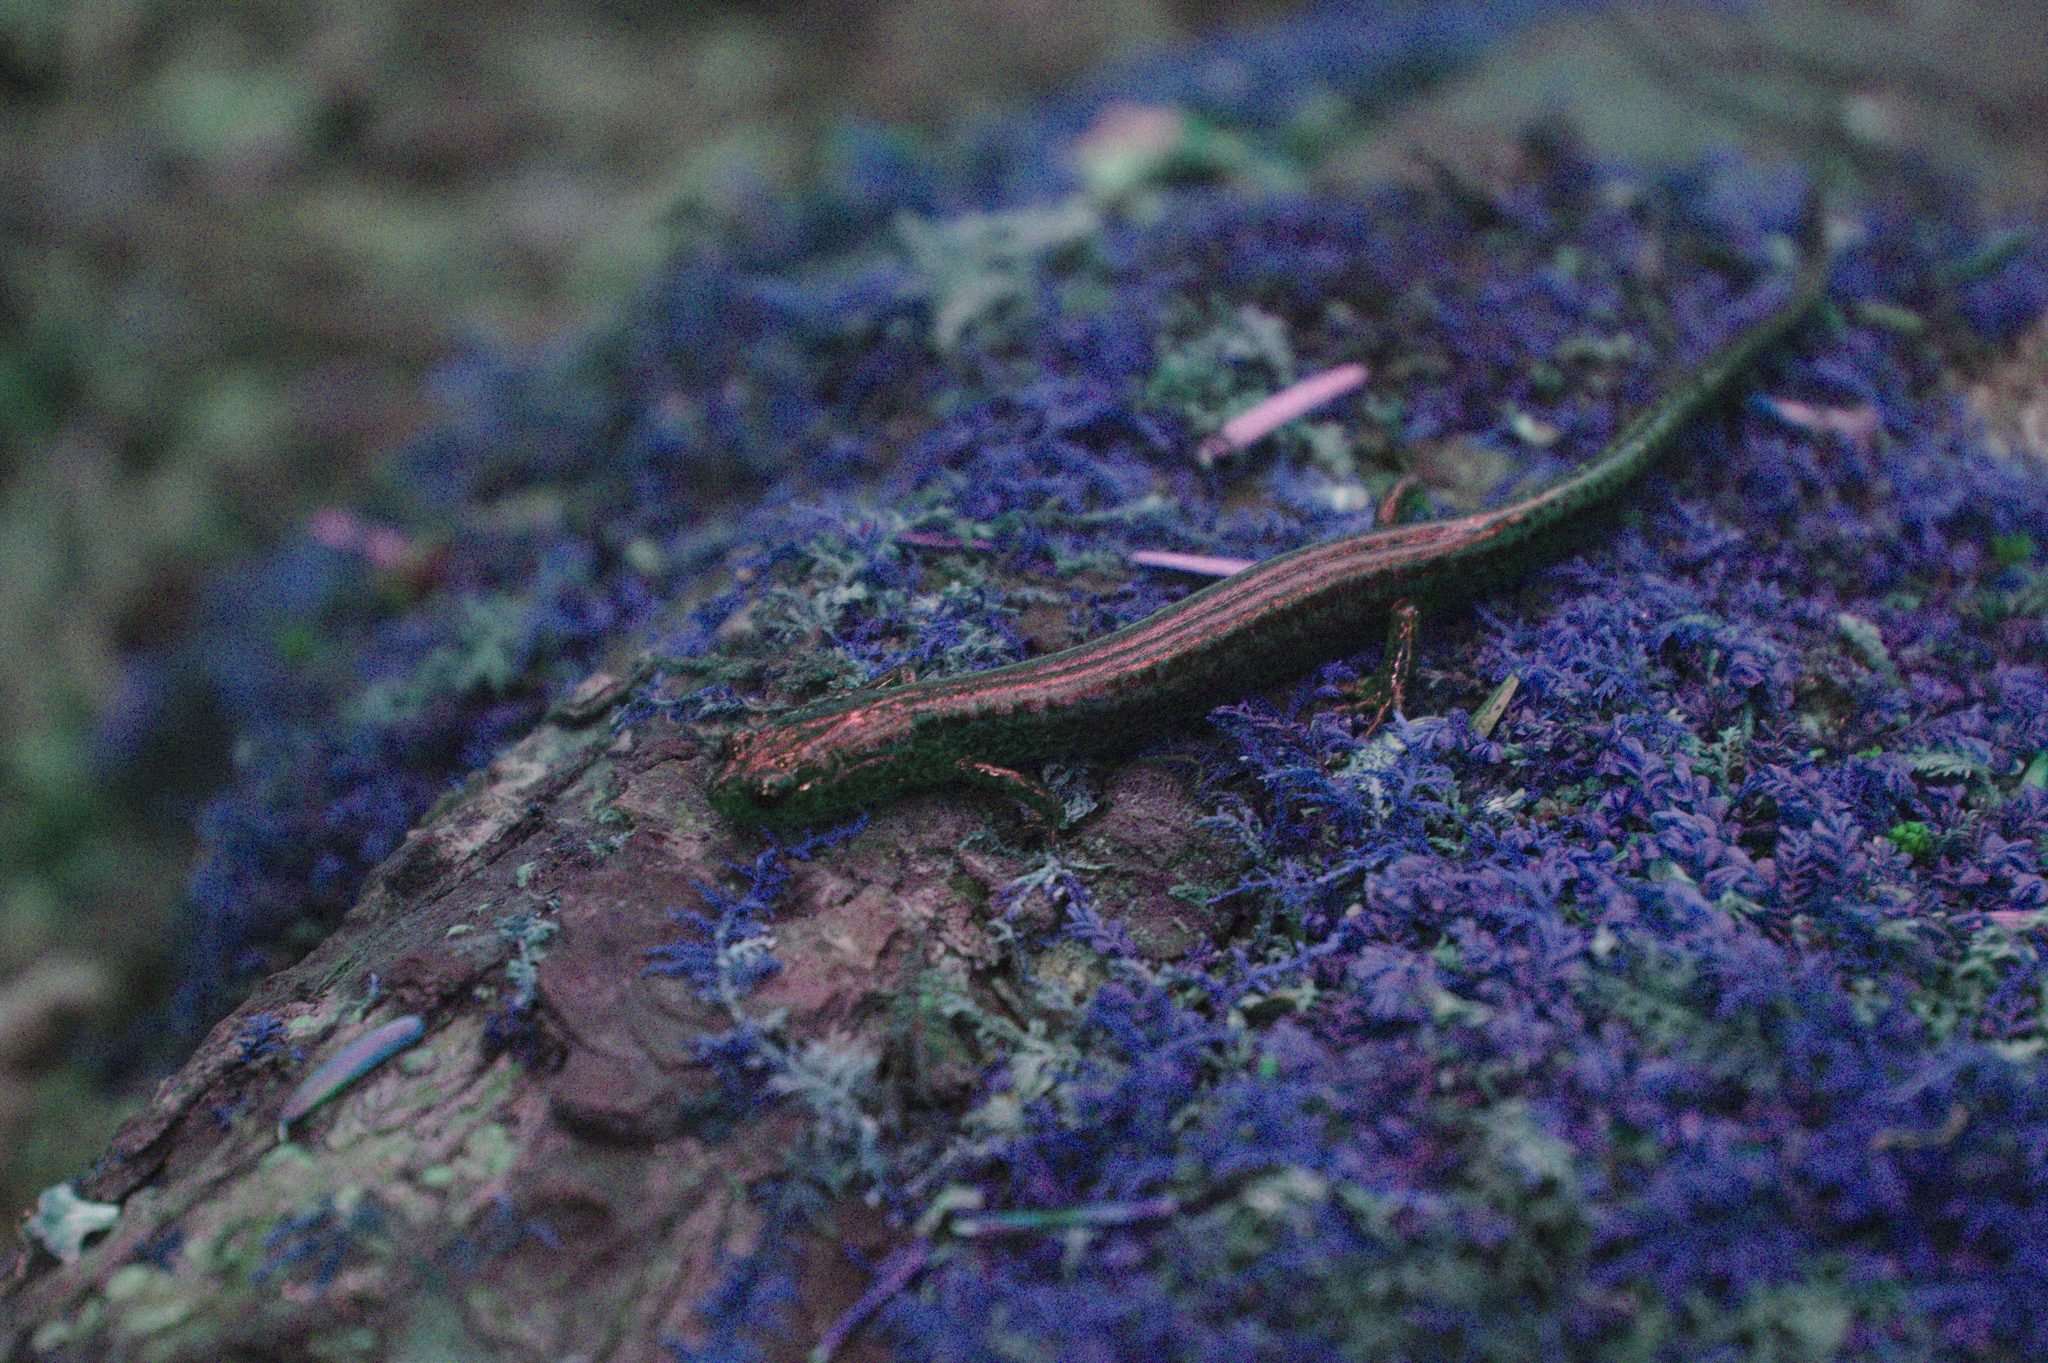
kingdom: Animalia
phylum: Chordata
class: Amphibia
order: Caudata
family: Plethodontidae
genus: Eurycea
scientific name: Eurycea bislineata
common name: Northern two-lined salamander
